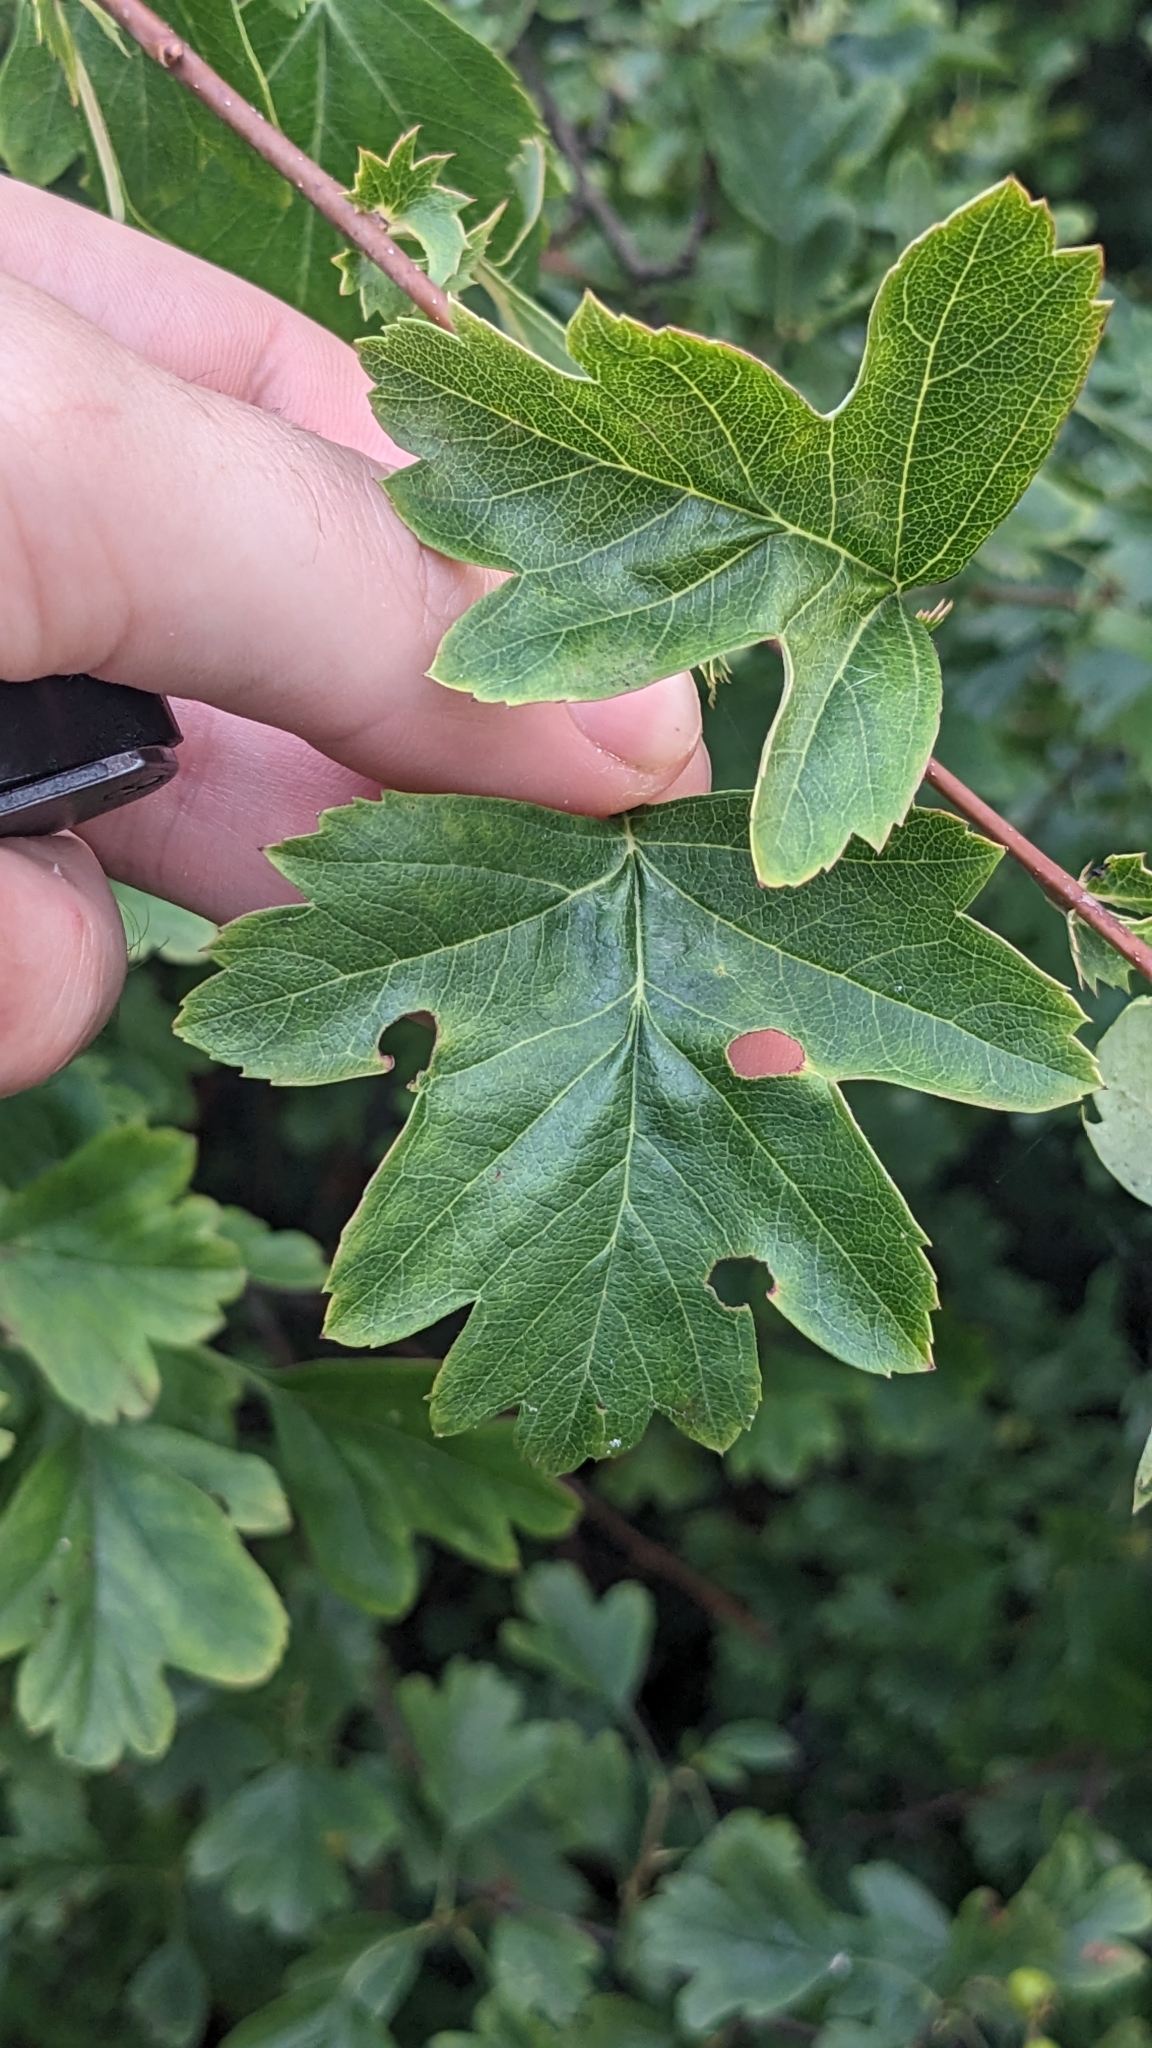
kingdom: Plantae
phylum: Tracheophyta
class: Magnoliopsida
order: Rosales
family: Rosaceae
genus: Crataegus
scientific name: Crataegus monogyna
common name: Hawthorn
